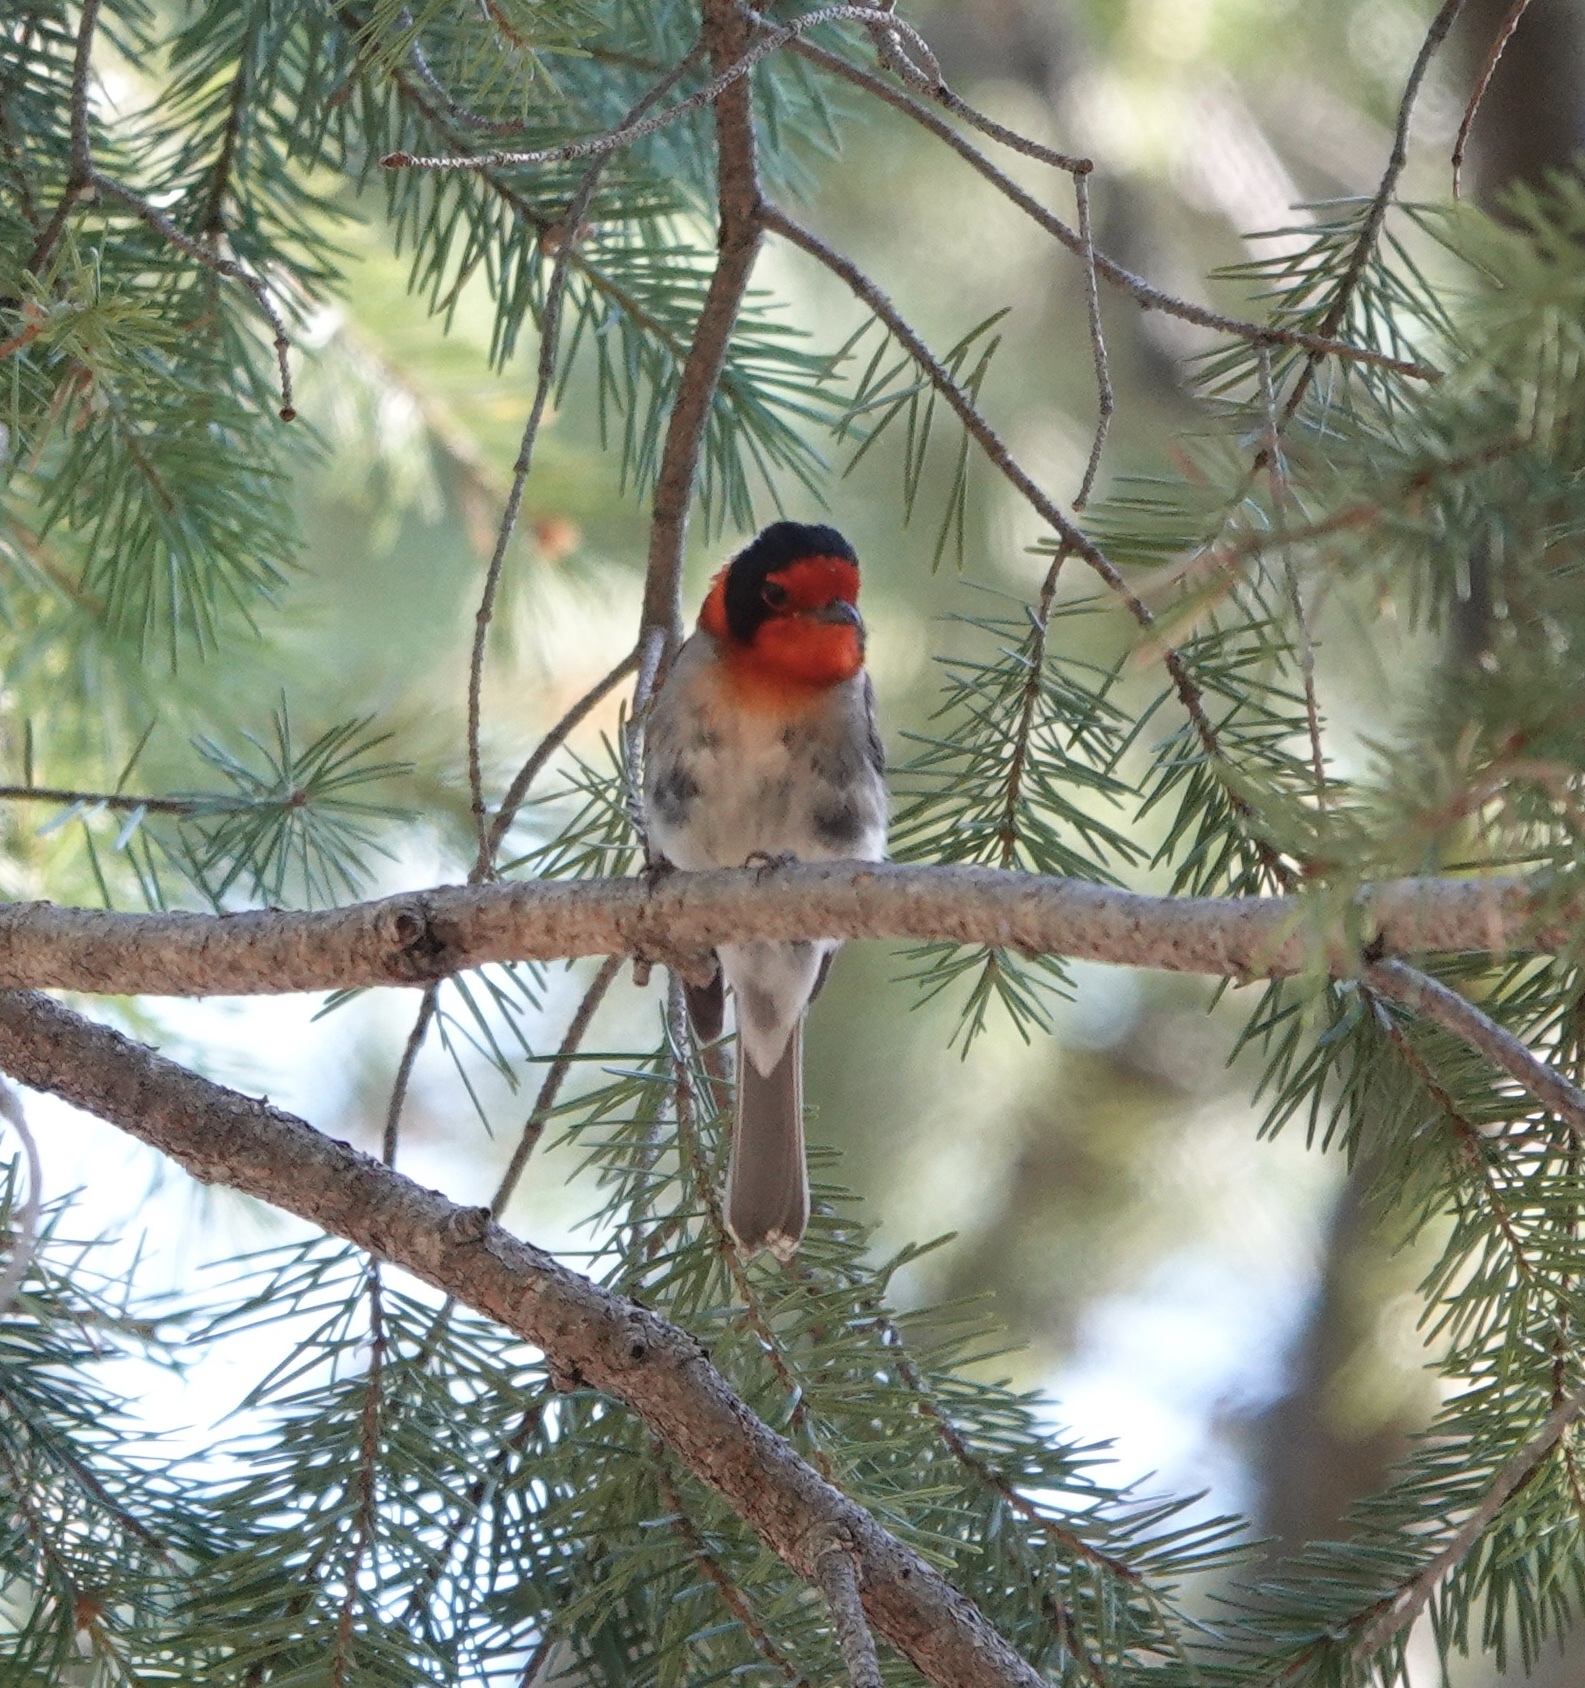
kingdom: Animalia
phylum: Chordata
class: Aves
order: Passeriformes
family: Parulidae
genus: Cardellina
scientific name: Cardellina rubrifrons
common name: Red-faced warbler
